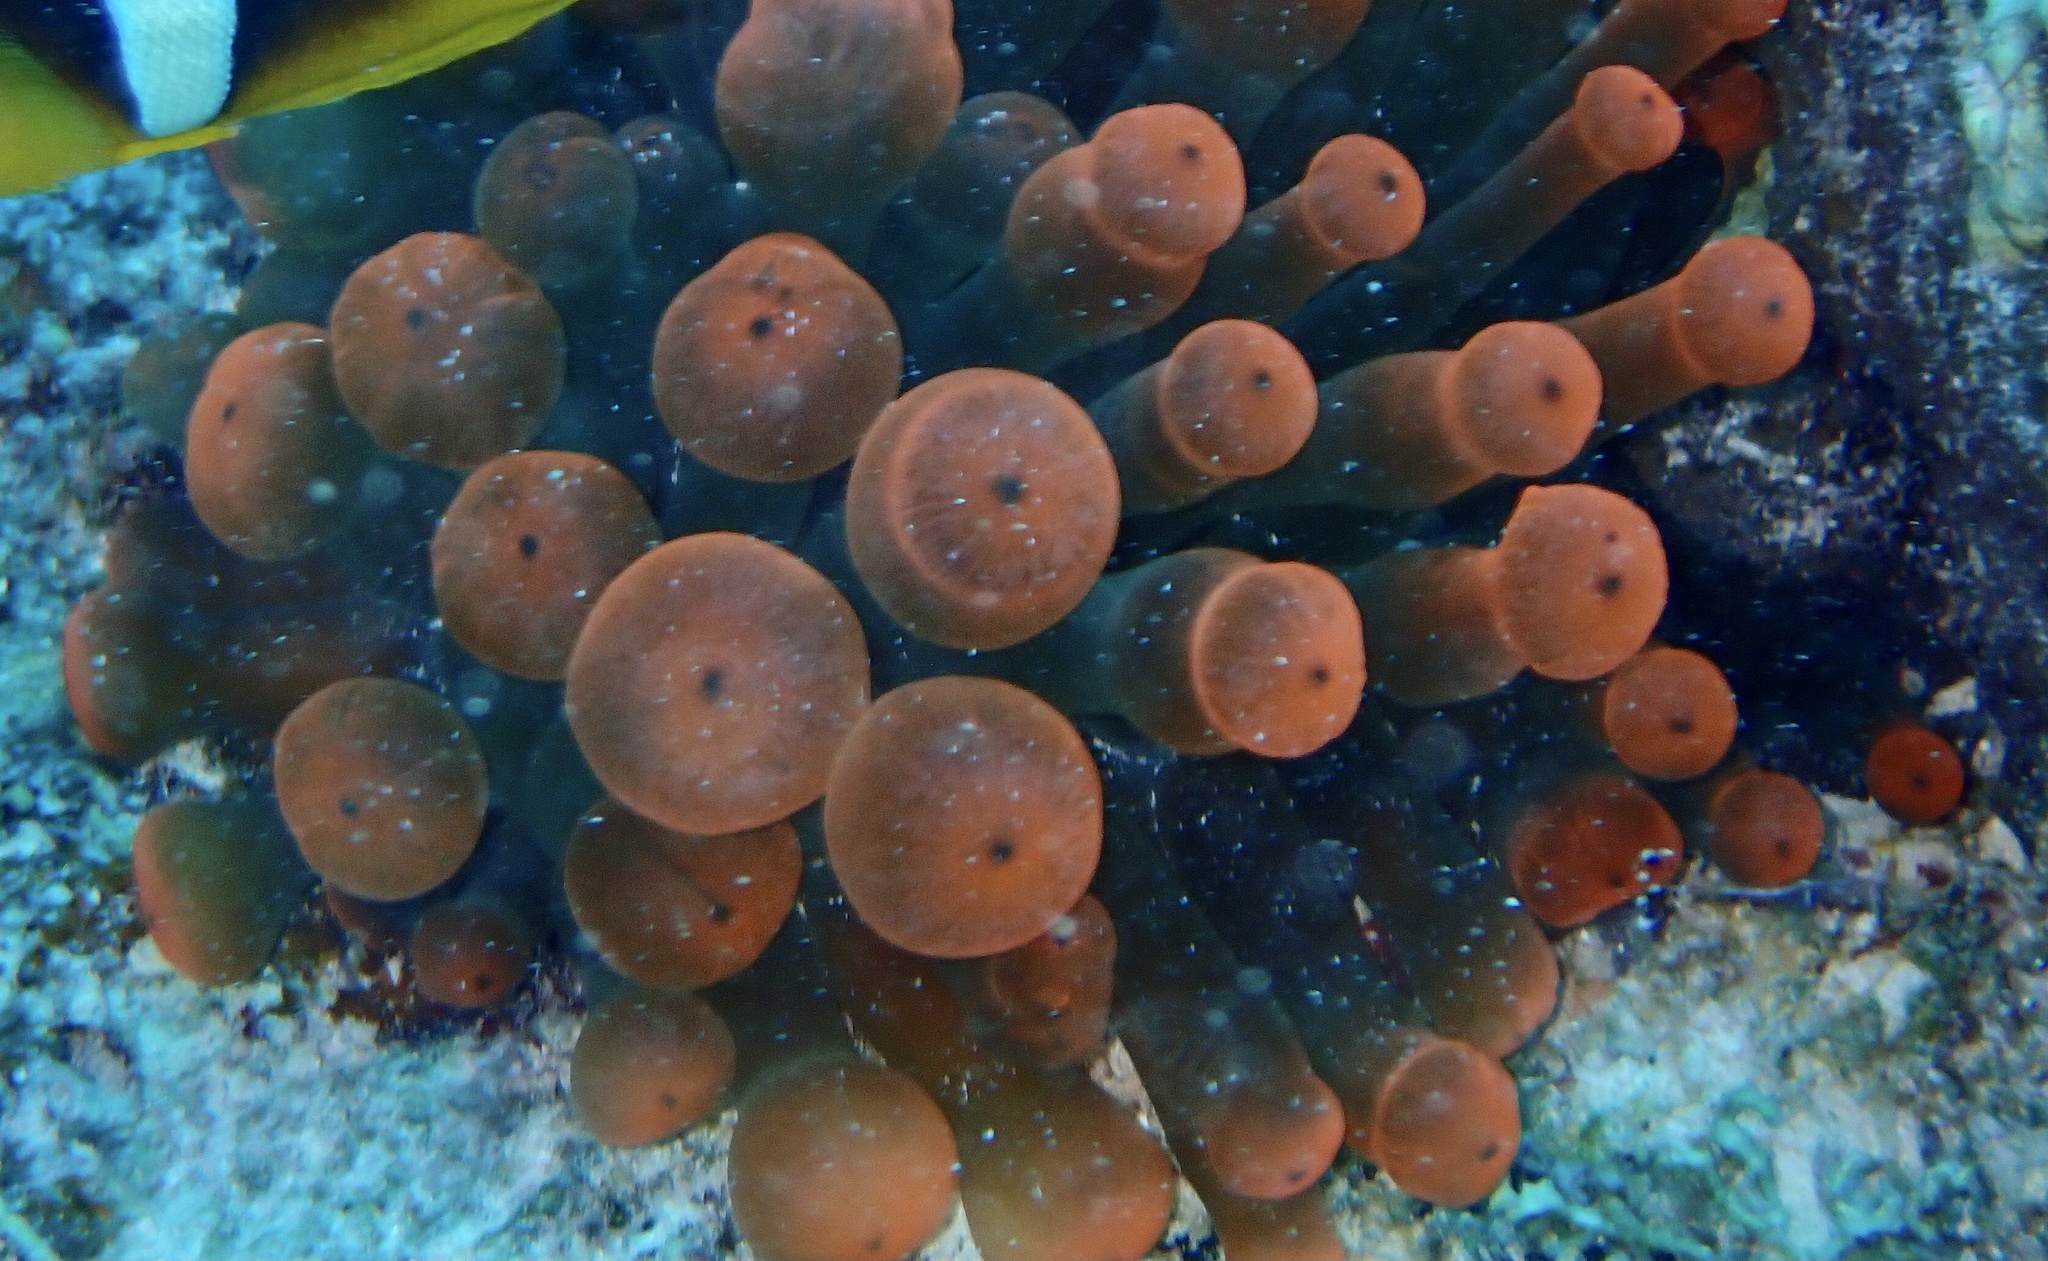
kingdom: Animalia
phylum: Cnidaria
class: Anthozoa
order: Actiniaria
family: Actiniidae
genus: Entacmaea
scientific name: Entacmaea quadricolor
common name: Bulb tentacle sea anemone
